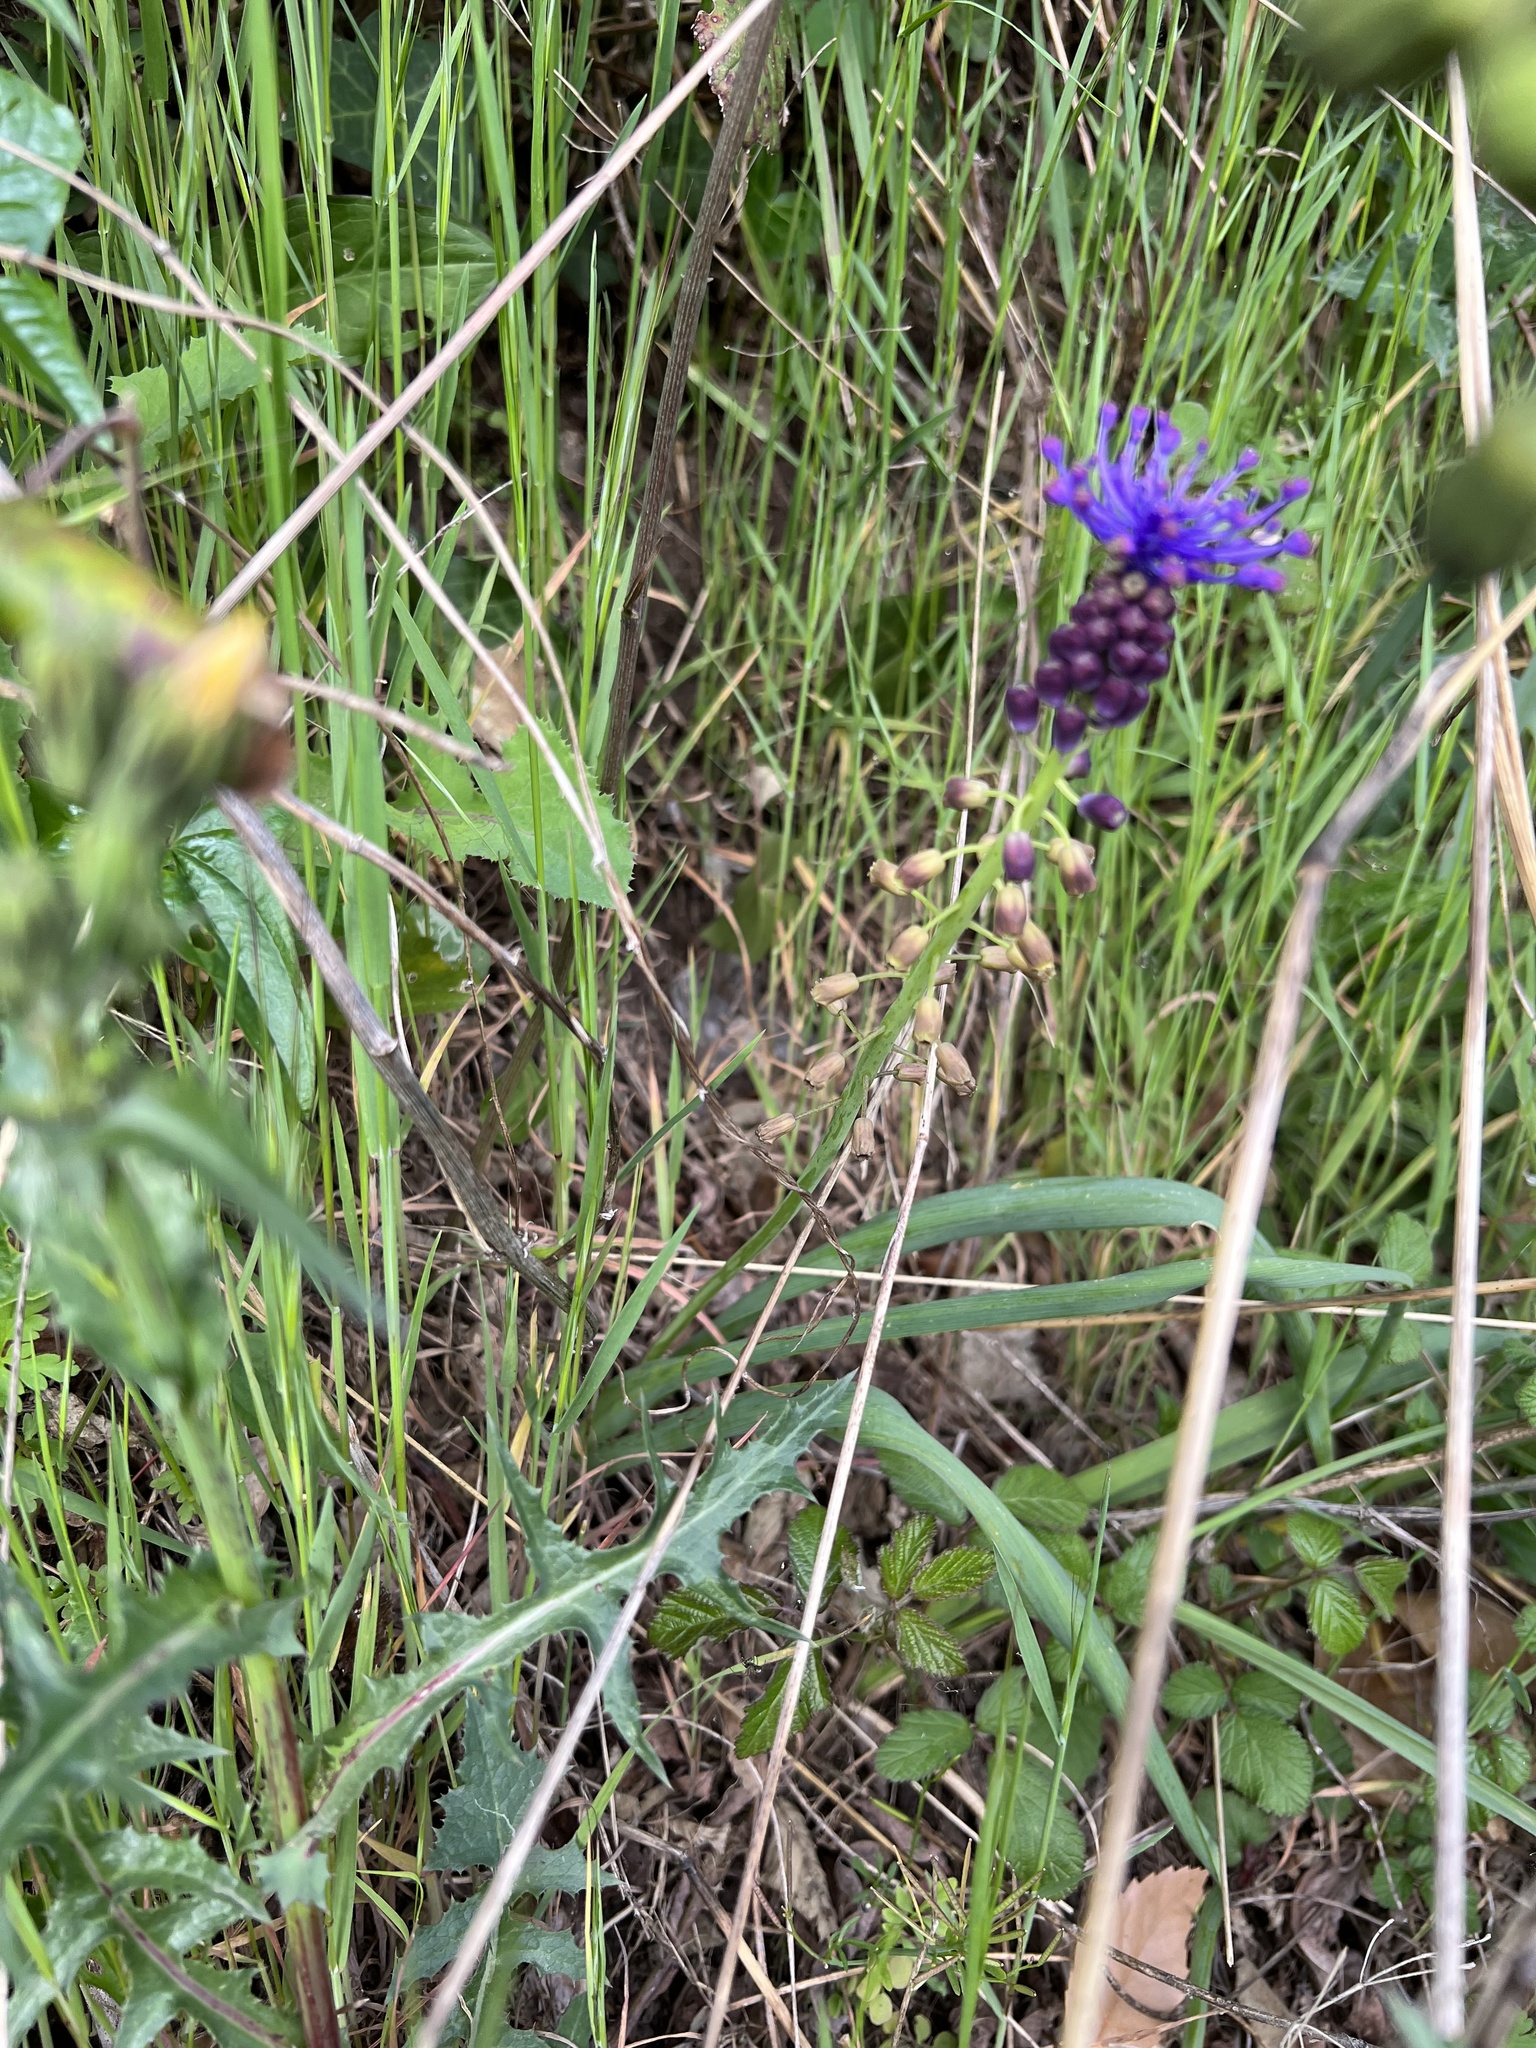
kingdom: Plantae
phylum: Tracheophyta
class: Liliopsida
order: Asparagales
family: Asparagaceae
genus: Muscari
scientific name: Muscari comosum
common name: Tassel hyacinth
